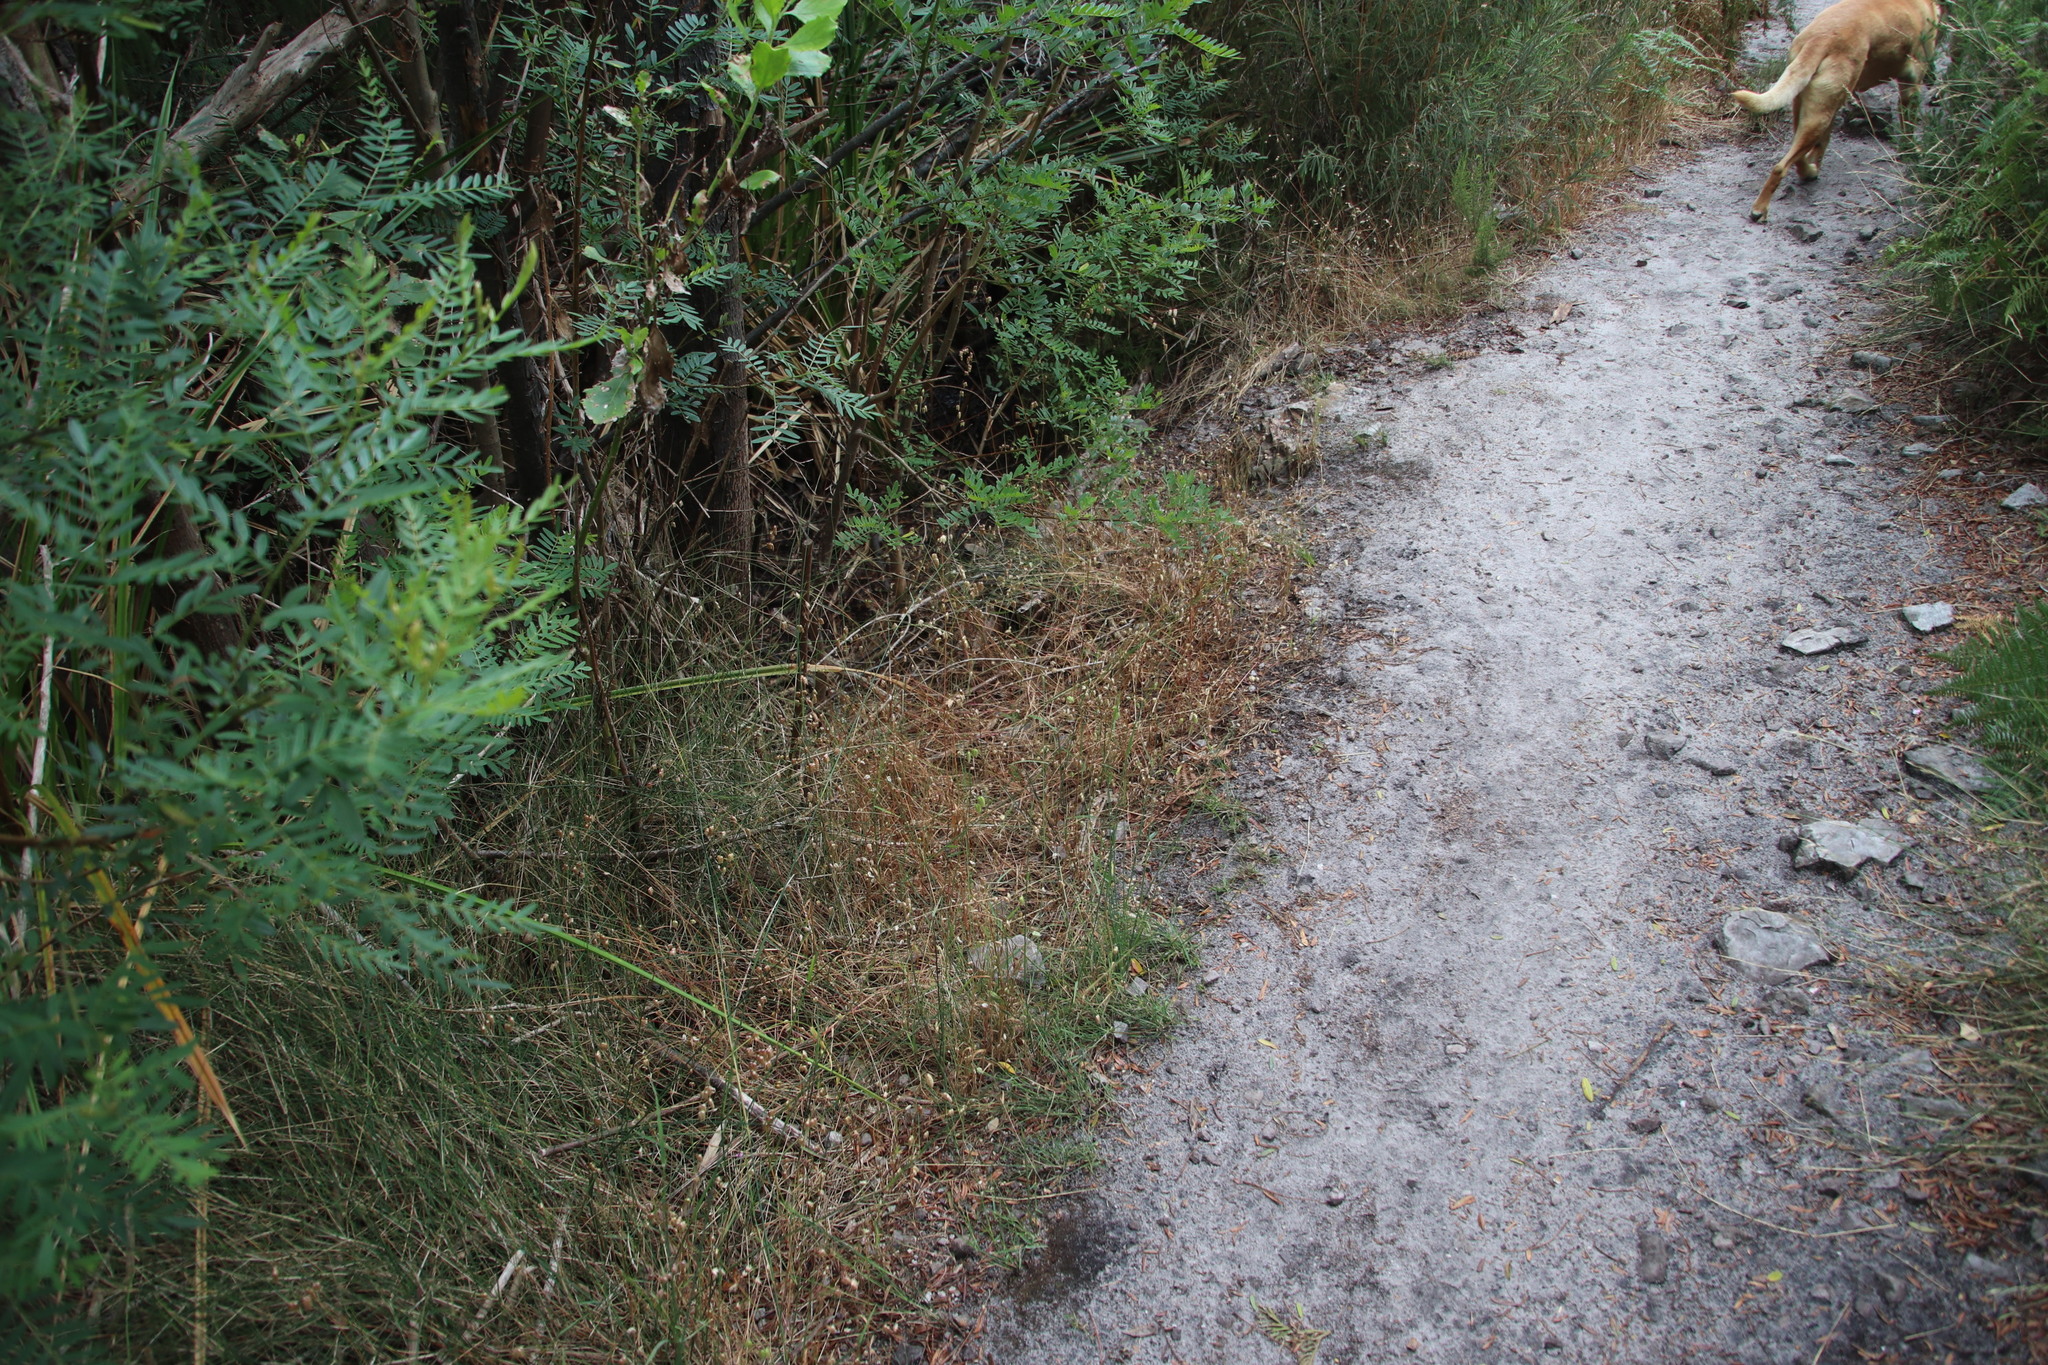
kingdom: Plantae
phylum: Tracheophyta
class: Liliopsida
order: Poales
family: Poaceae
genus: Briza
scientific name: Briza maxima
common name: Big quakinggrass
